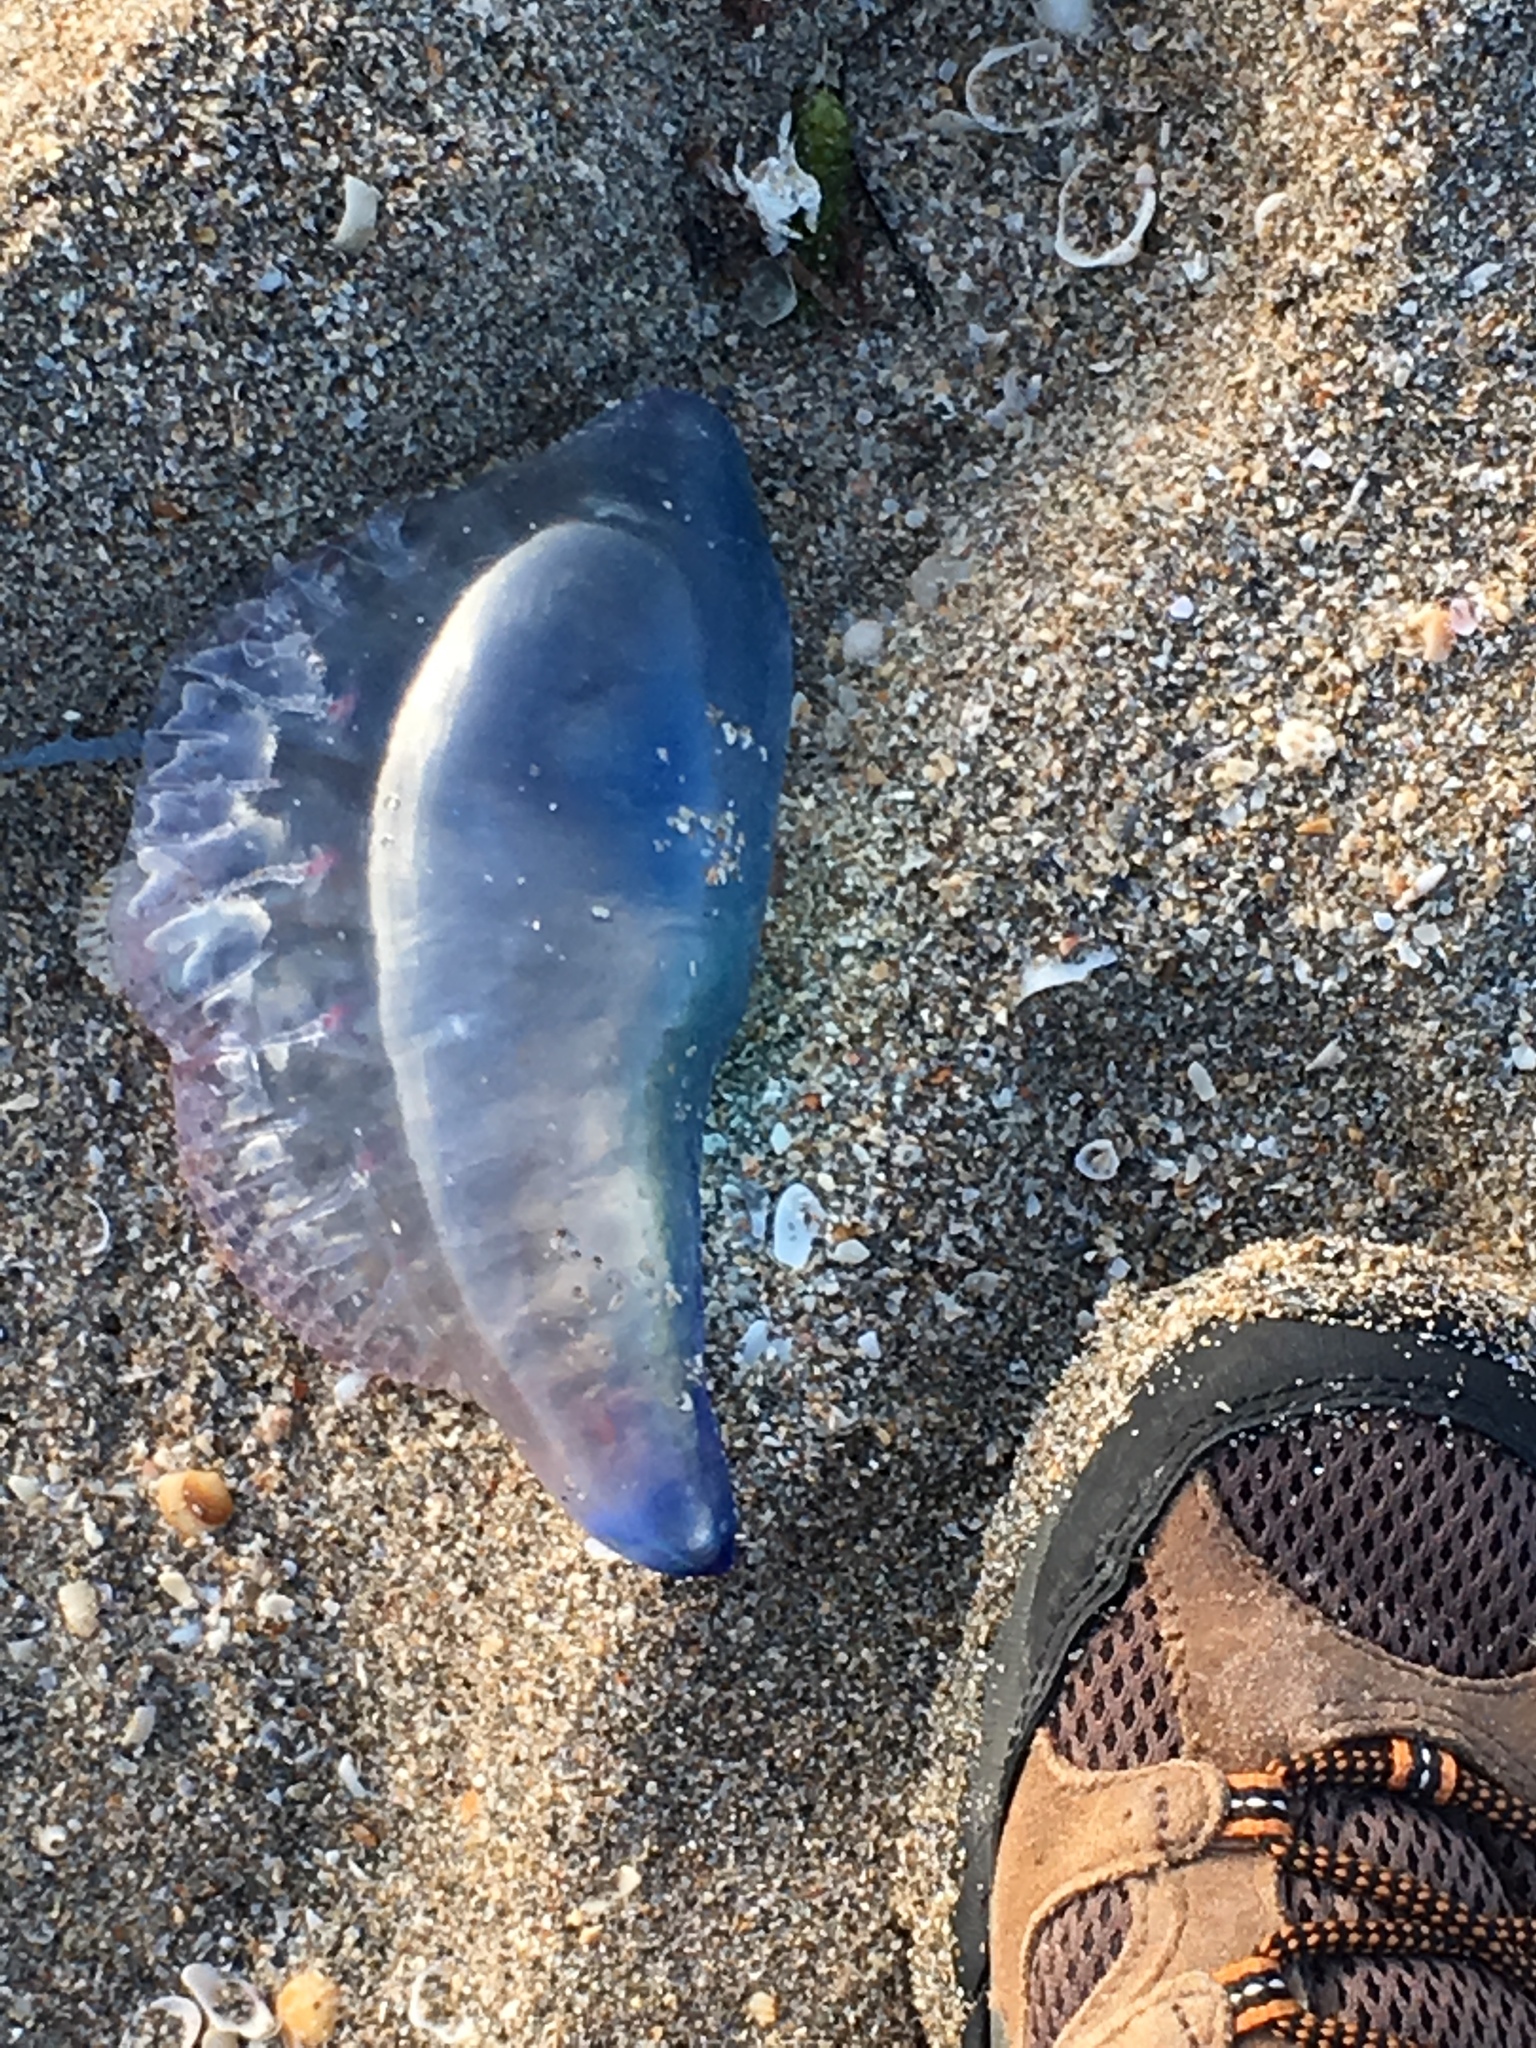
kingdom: Animalia
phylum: Cnidaria
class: Hydrozoa
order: Siphonophorae
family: Physaliidae
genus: Physalia
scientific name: Physalia physalis
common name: Portuguese man-of-war
